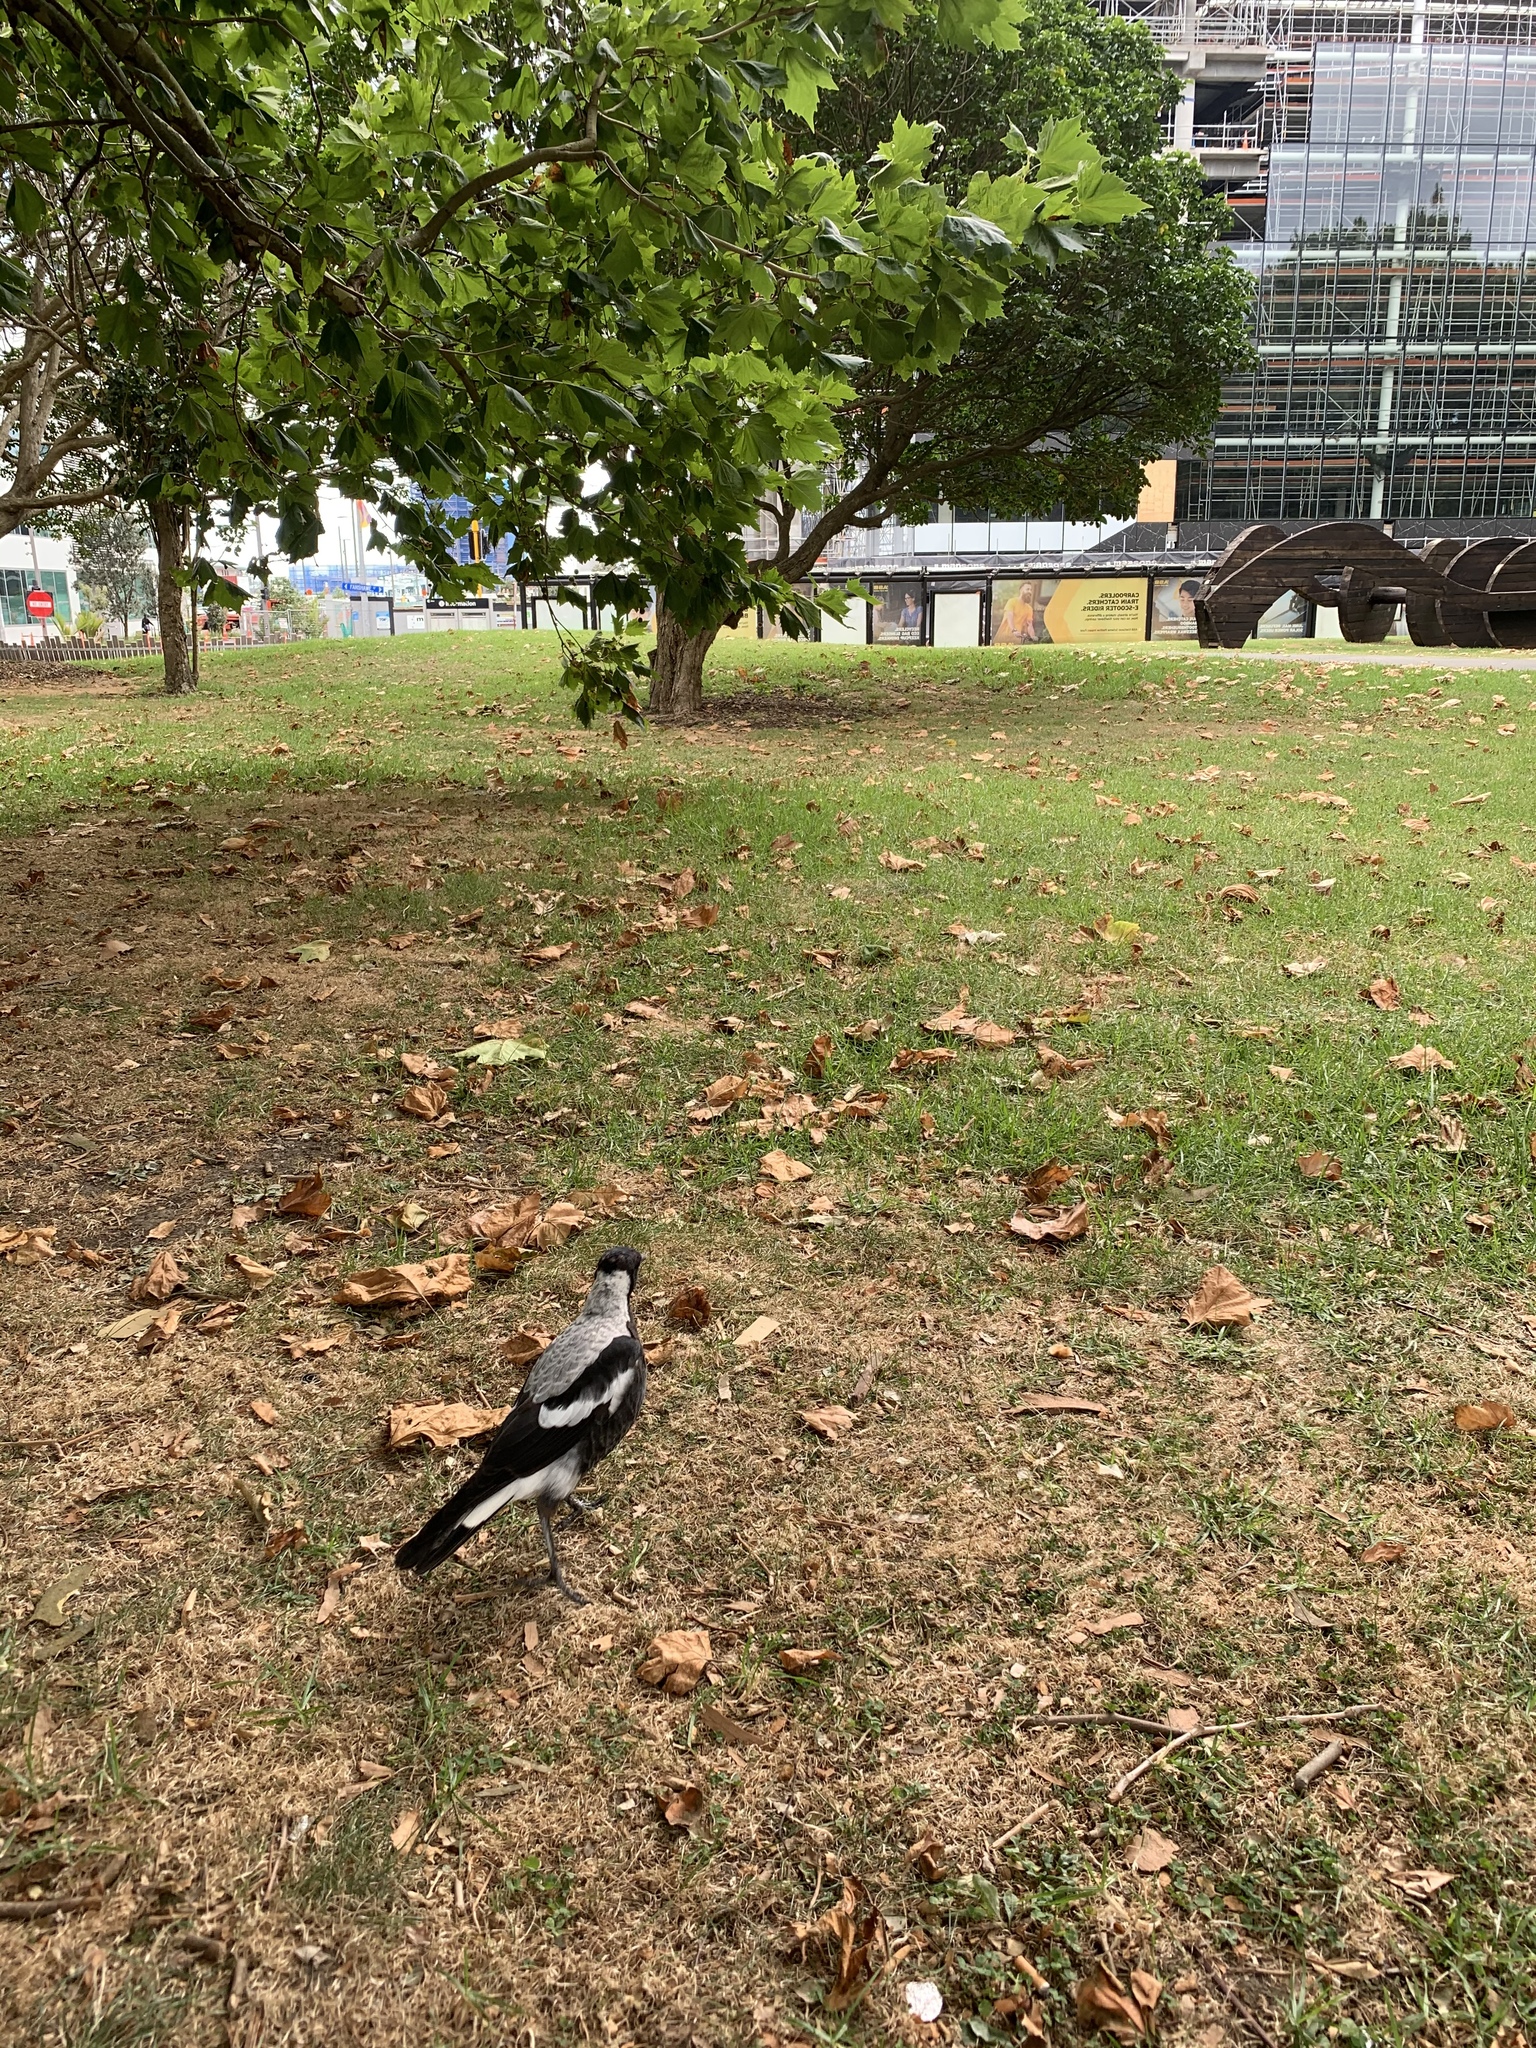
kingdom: Animalia
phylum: Chordata
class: Aves
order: Passeriformes
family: Cracticidae
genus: Gymnorhina
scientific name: Gymnorhina tibicen
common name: Australian magpie
